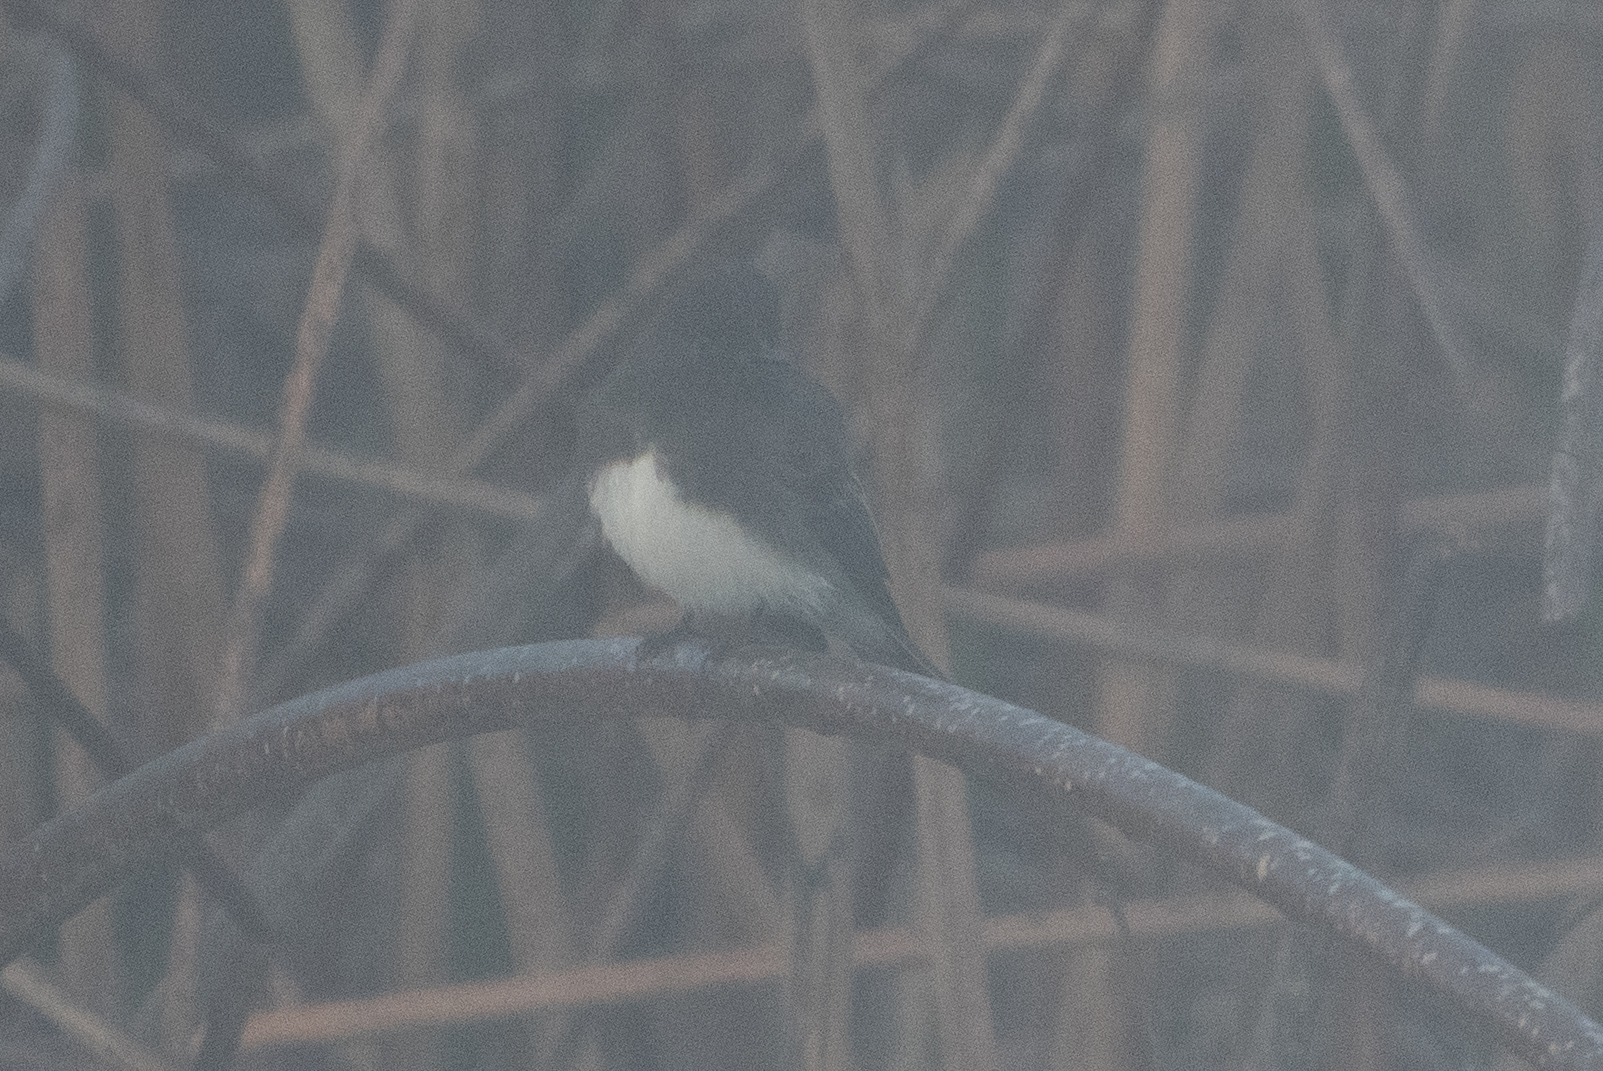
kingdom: Animalia
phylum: Chordata
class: Aves
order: Passeriformes
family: Tyrannidae
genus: Sayornis
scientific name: Sayornis nigricans
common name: Black phoebe
